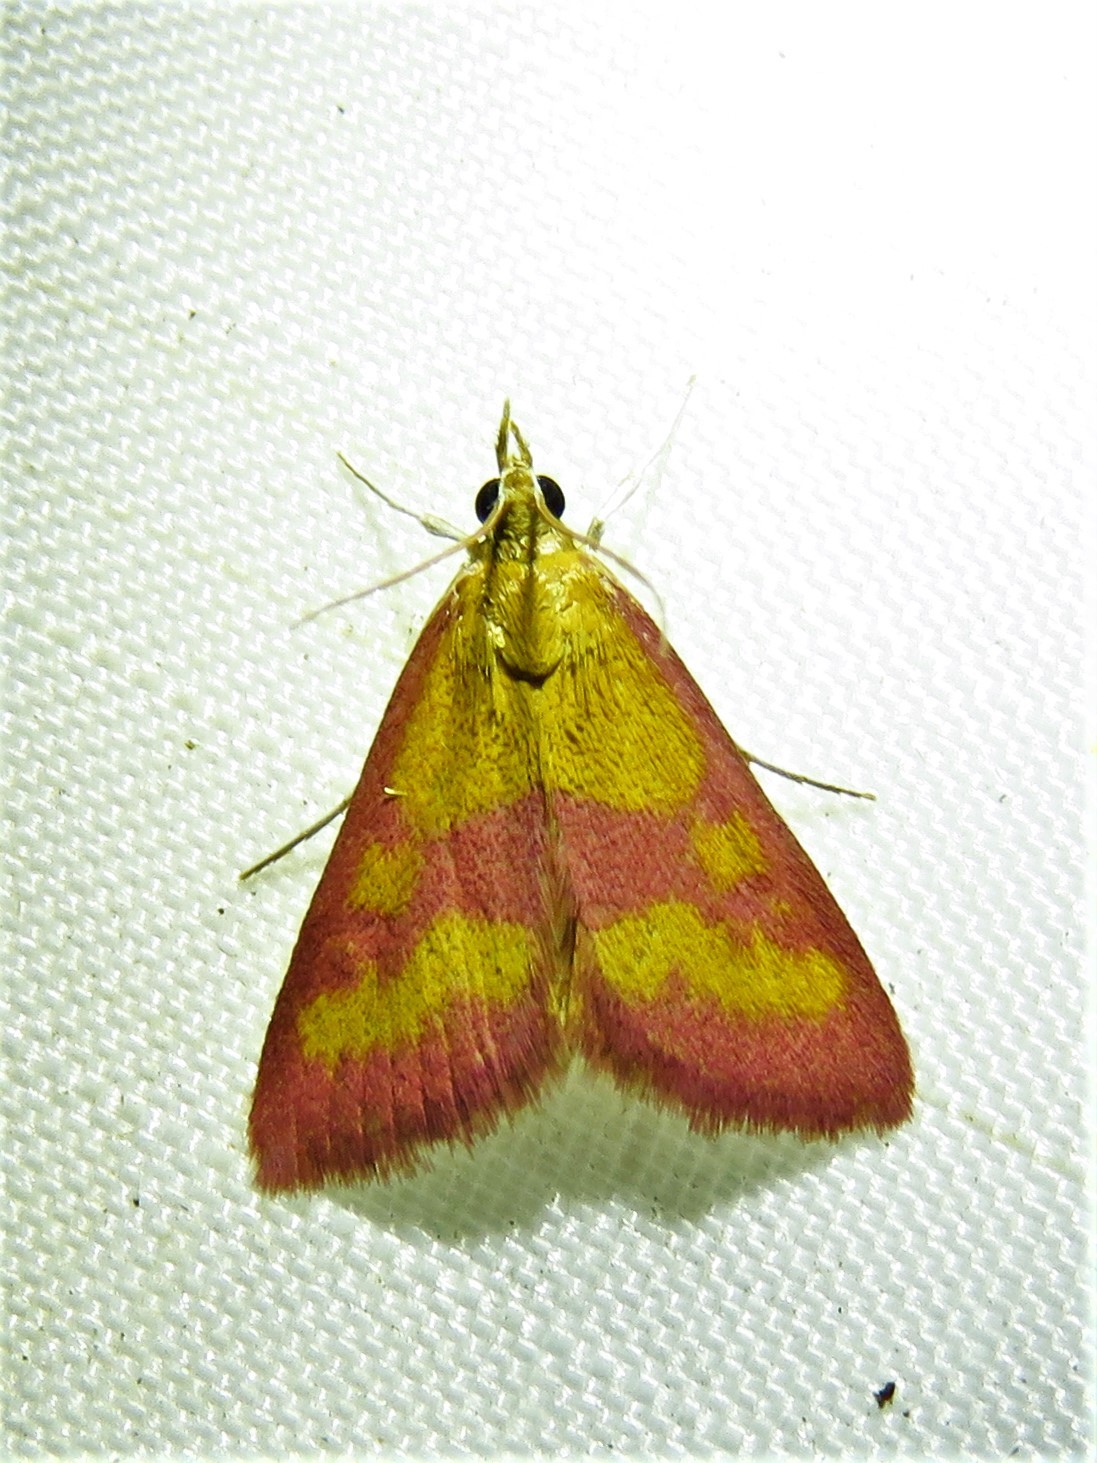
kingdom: Animalia
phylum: Arthropoda
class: Insecta
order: Lepidoptera
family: Crambidae
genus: Pyrausta
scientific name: Pyrausta laticlavia
